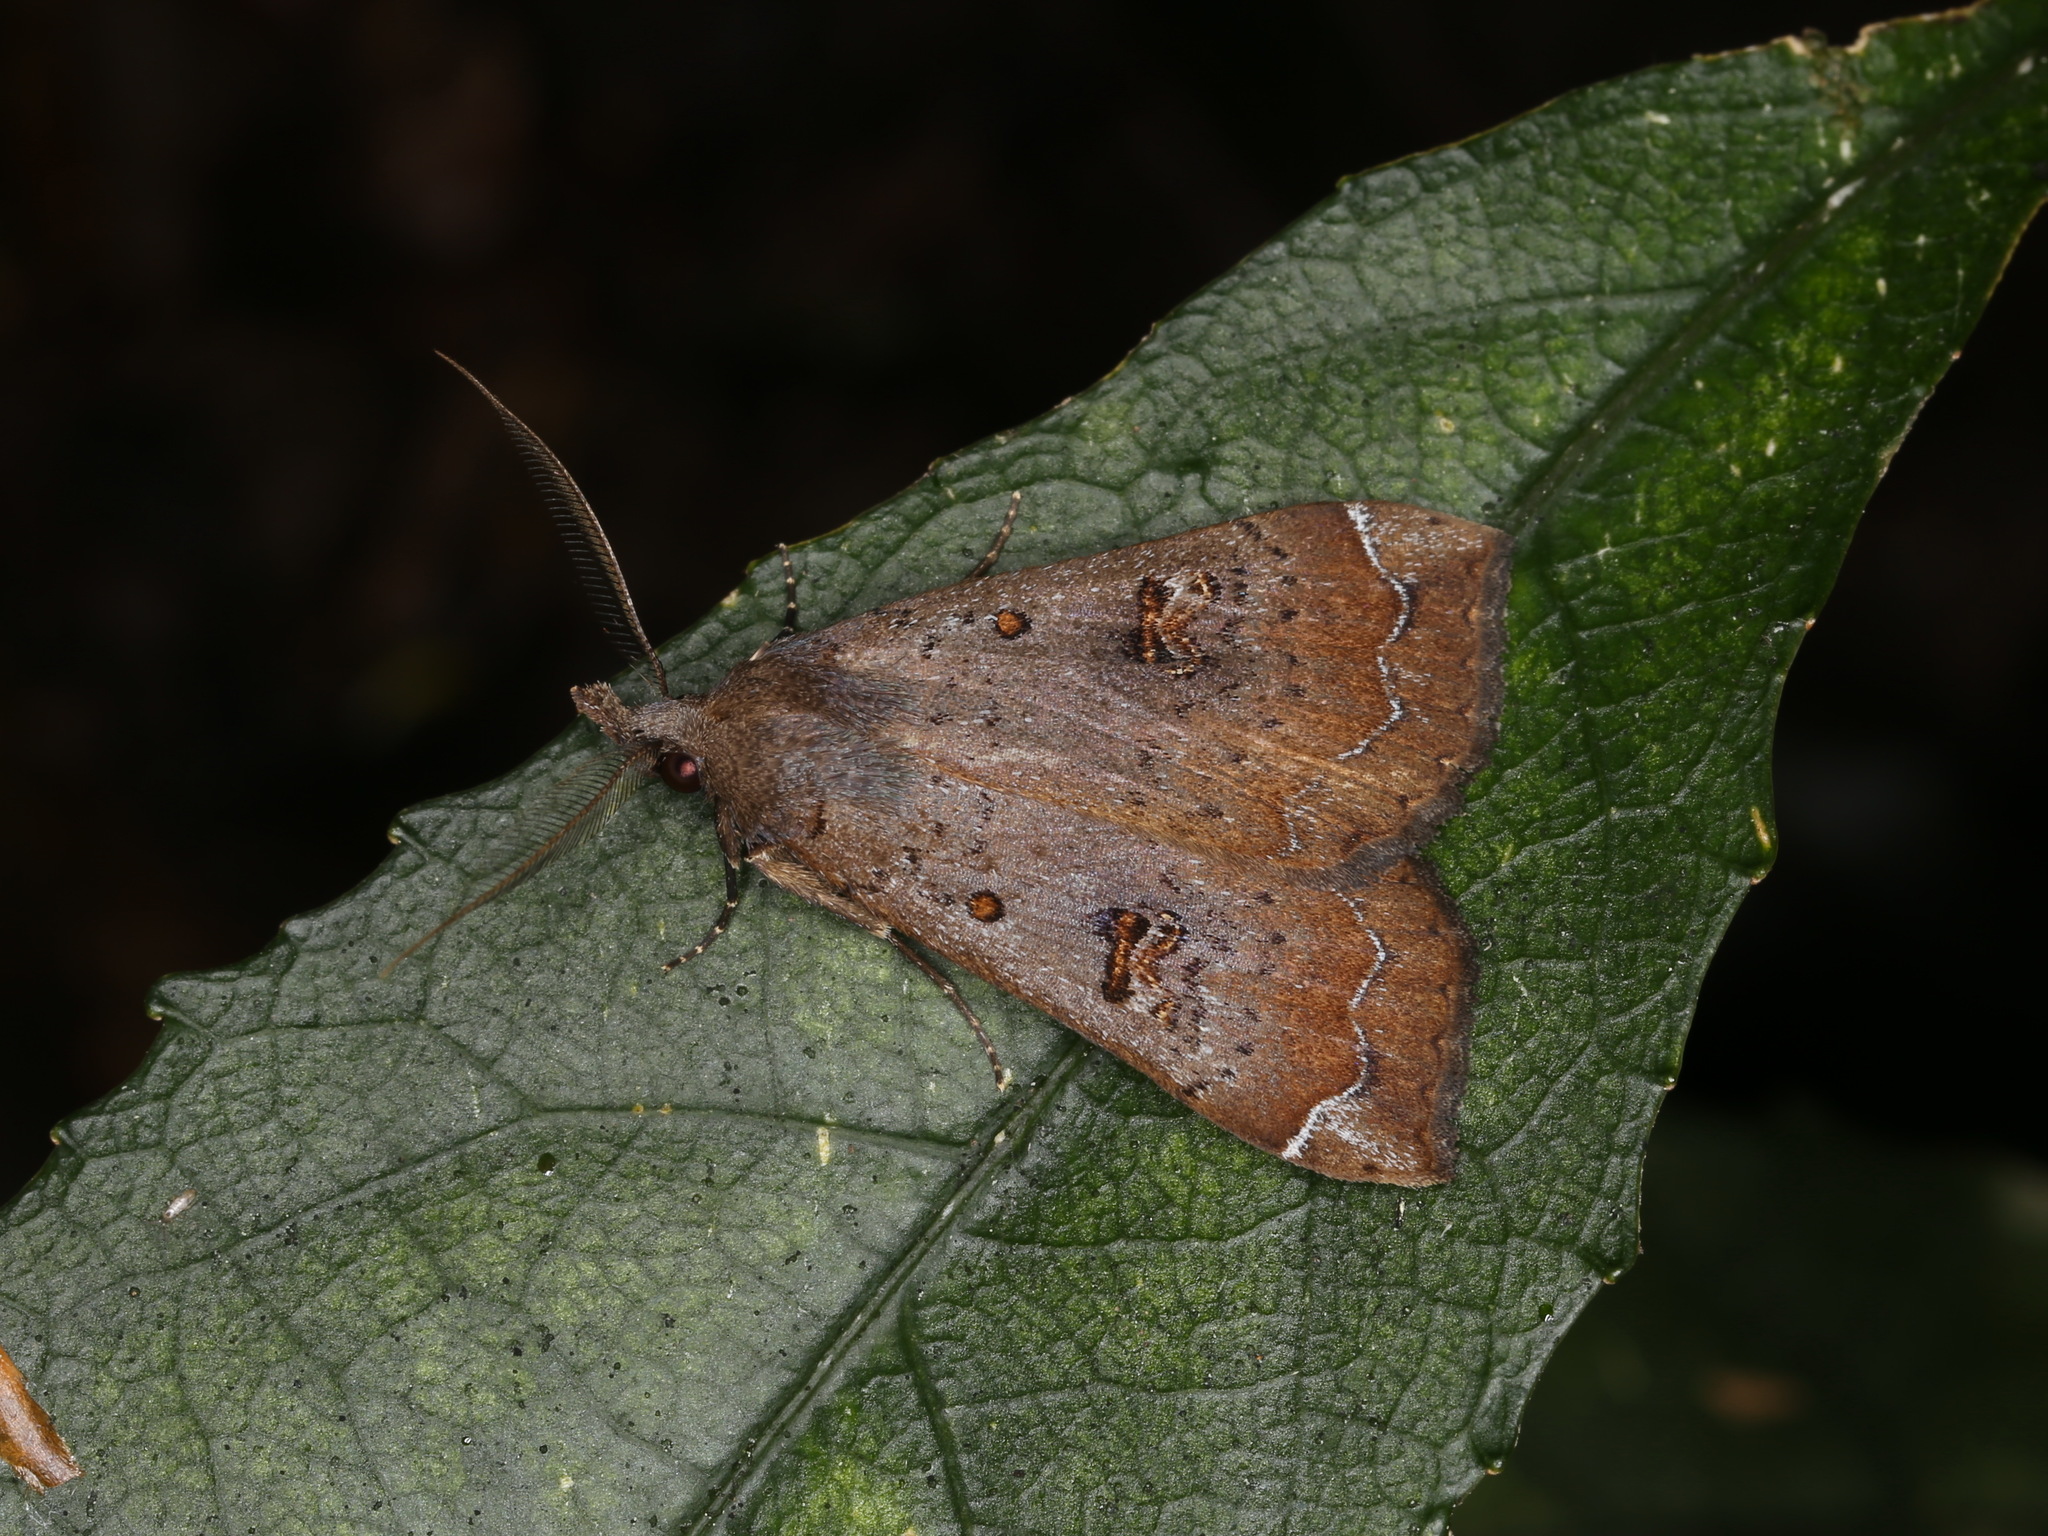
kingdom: Animalia
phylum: Arthropoda
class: Insecta
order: Lepidoptera
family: Erebidae
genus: Rhapsa
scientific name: Rhapsa scotosialis
